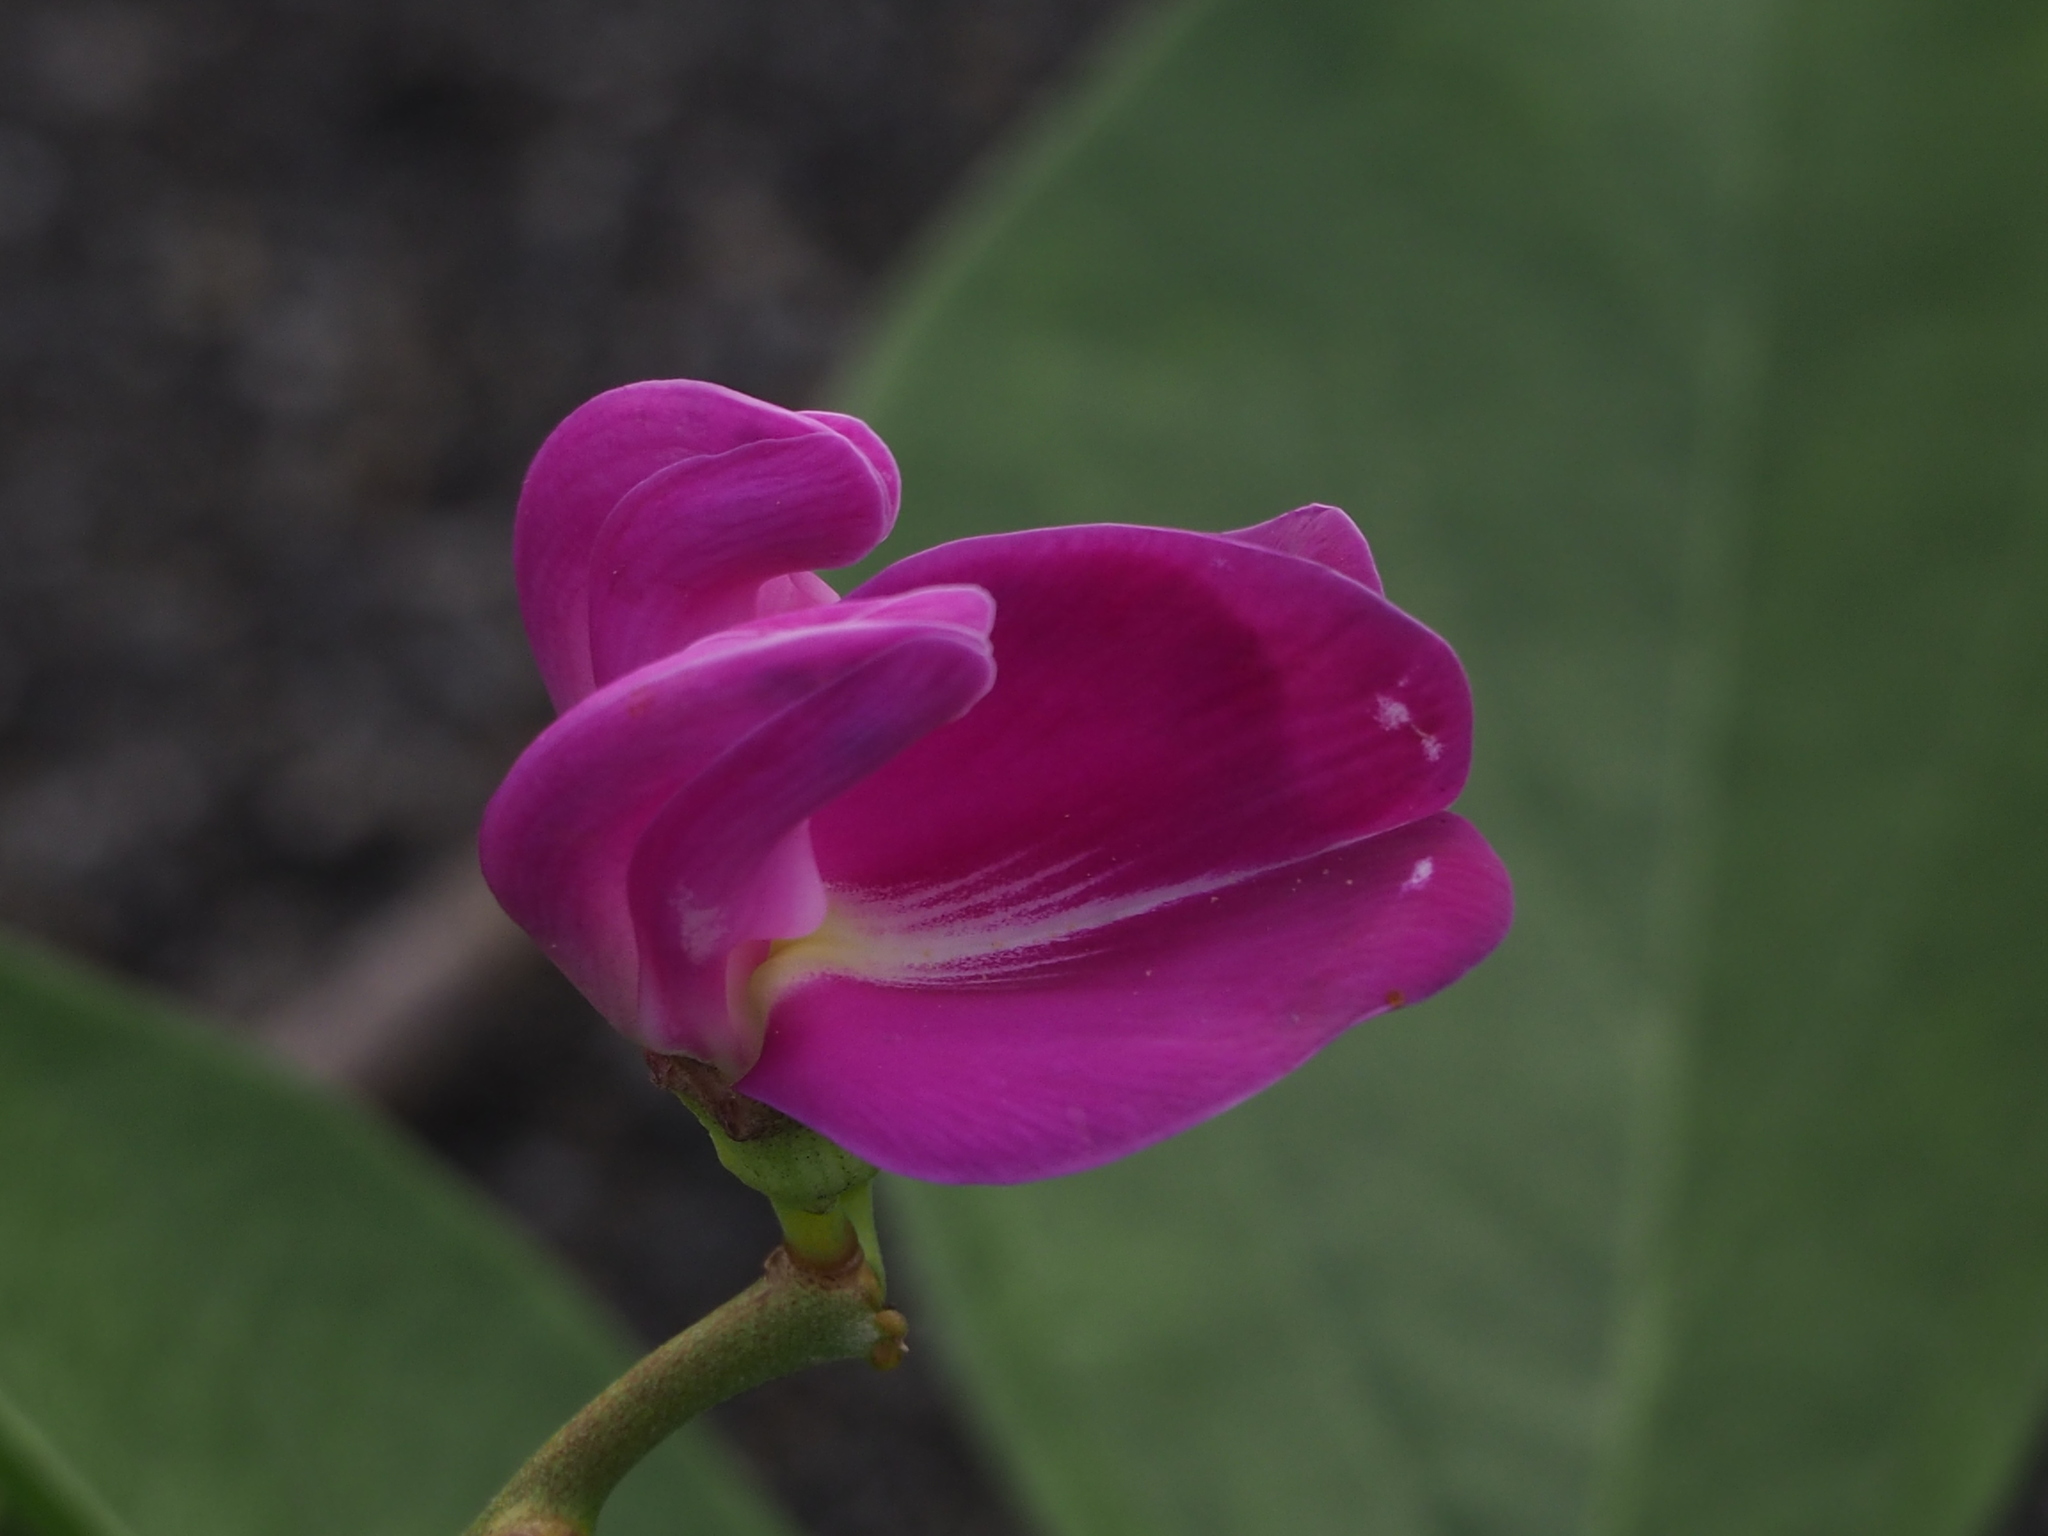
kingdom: Plantae
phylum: Tracheophyta
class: Magnoliopsida
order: Fabales
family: Fabaceae
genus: Canavalia
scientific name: Canavalia lineata
